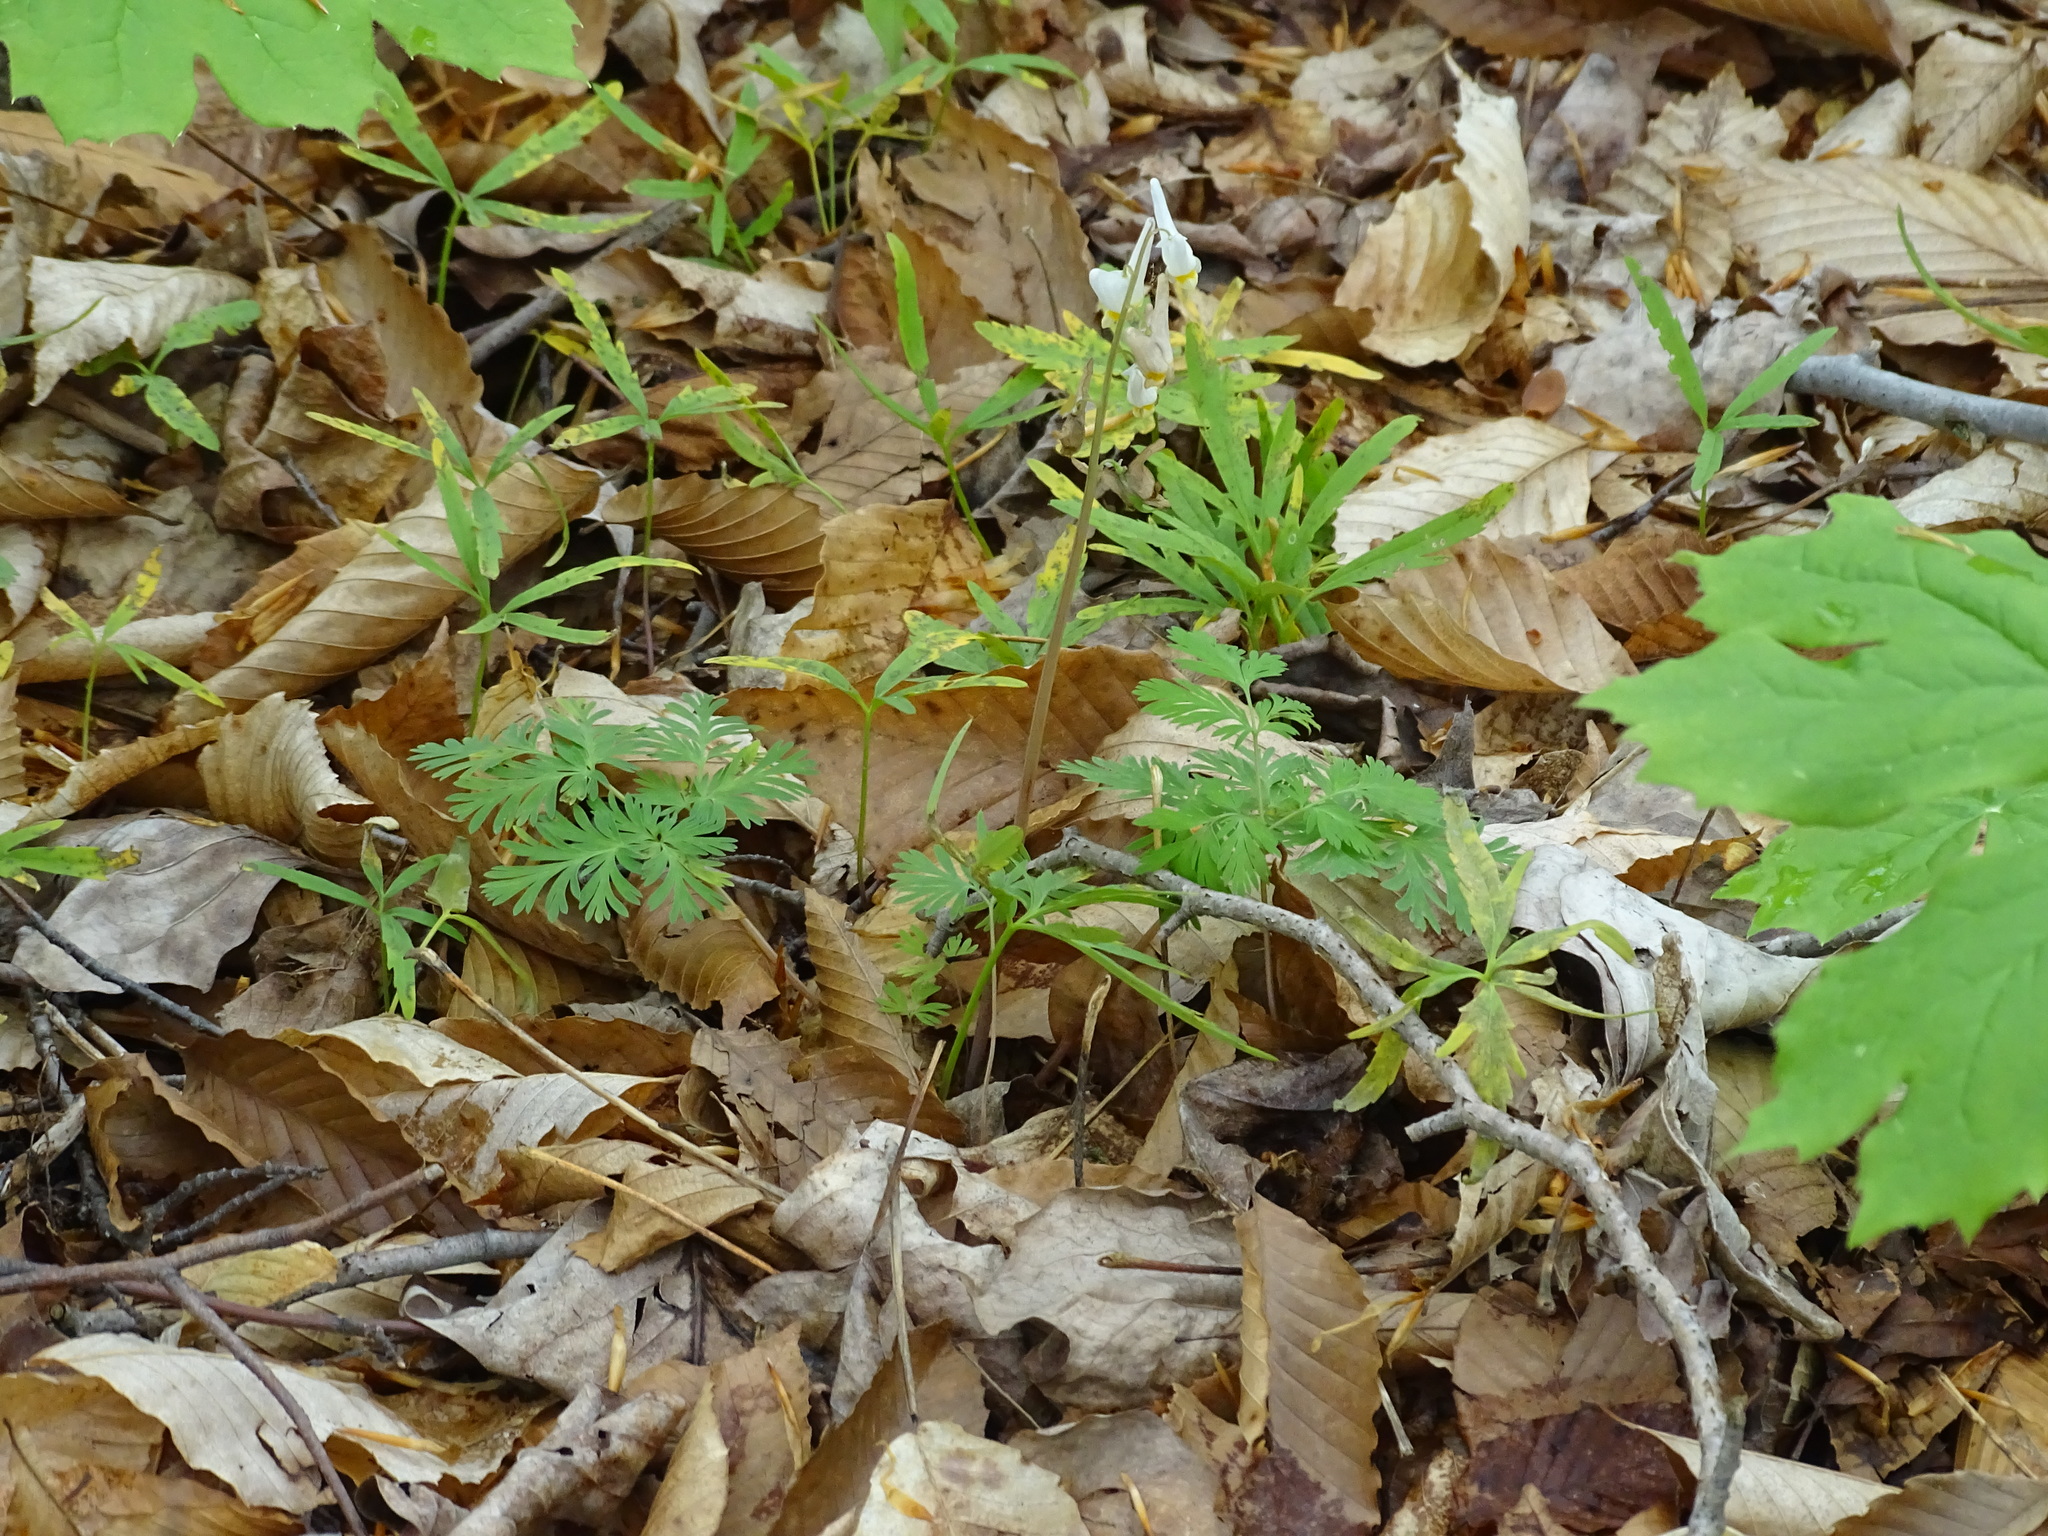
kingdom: Plantae
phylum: Tracheophyta
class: Magnoliopsida
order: Ranunculales
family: Papaveraceae
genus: Dicentra
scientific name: Dicentra cucullaria
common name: Dutchman's breeches
